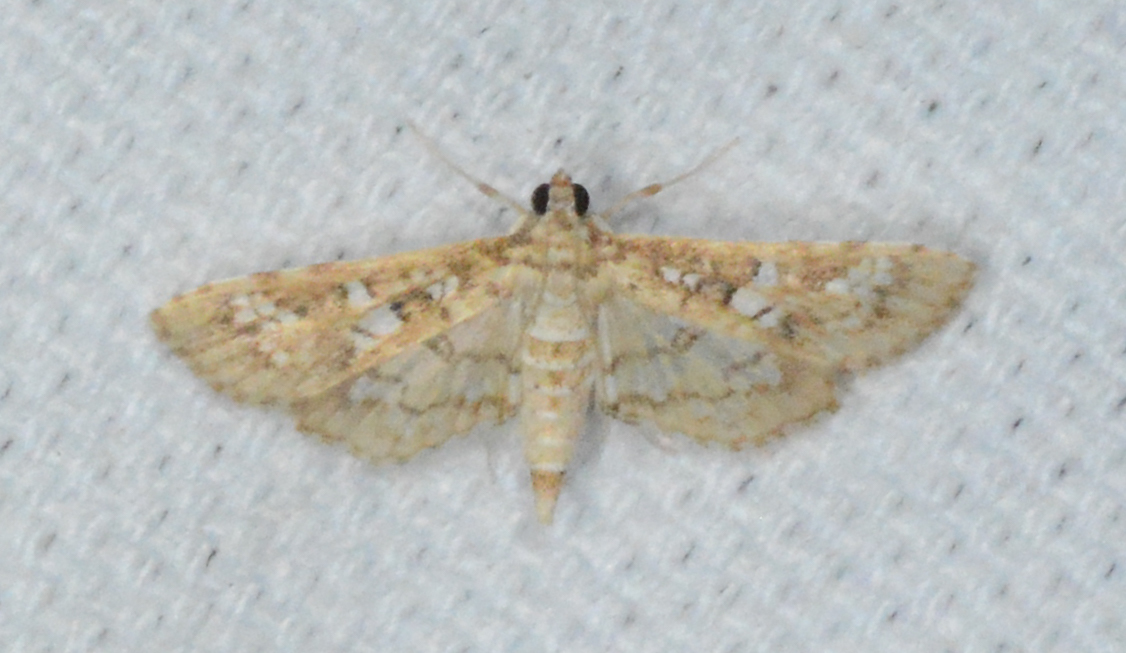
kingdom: Animalia
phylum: Arthropoda
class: Insecta
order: Lepidoptera
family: Crambidae
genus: Samea
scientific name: Samea multiplicalis
